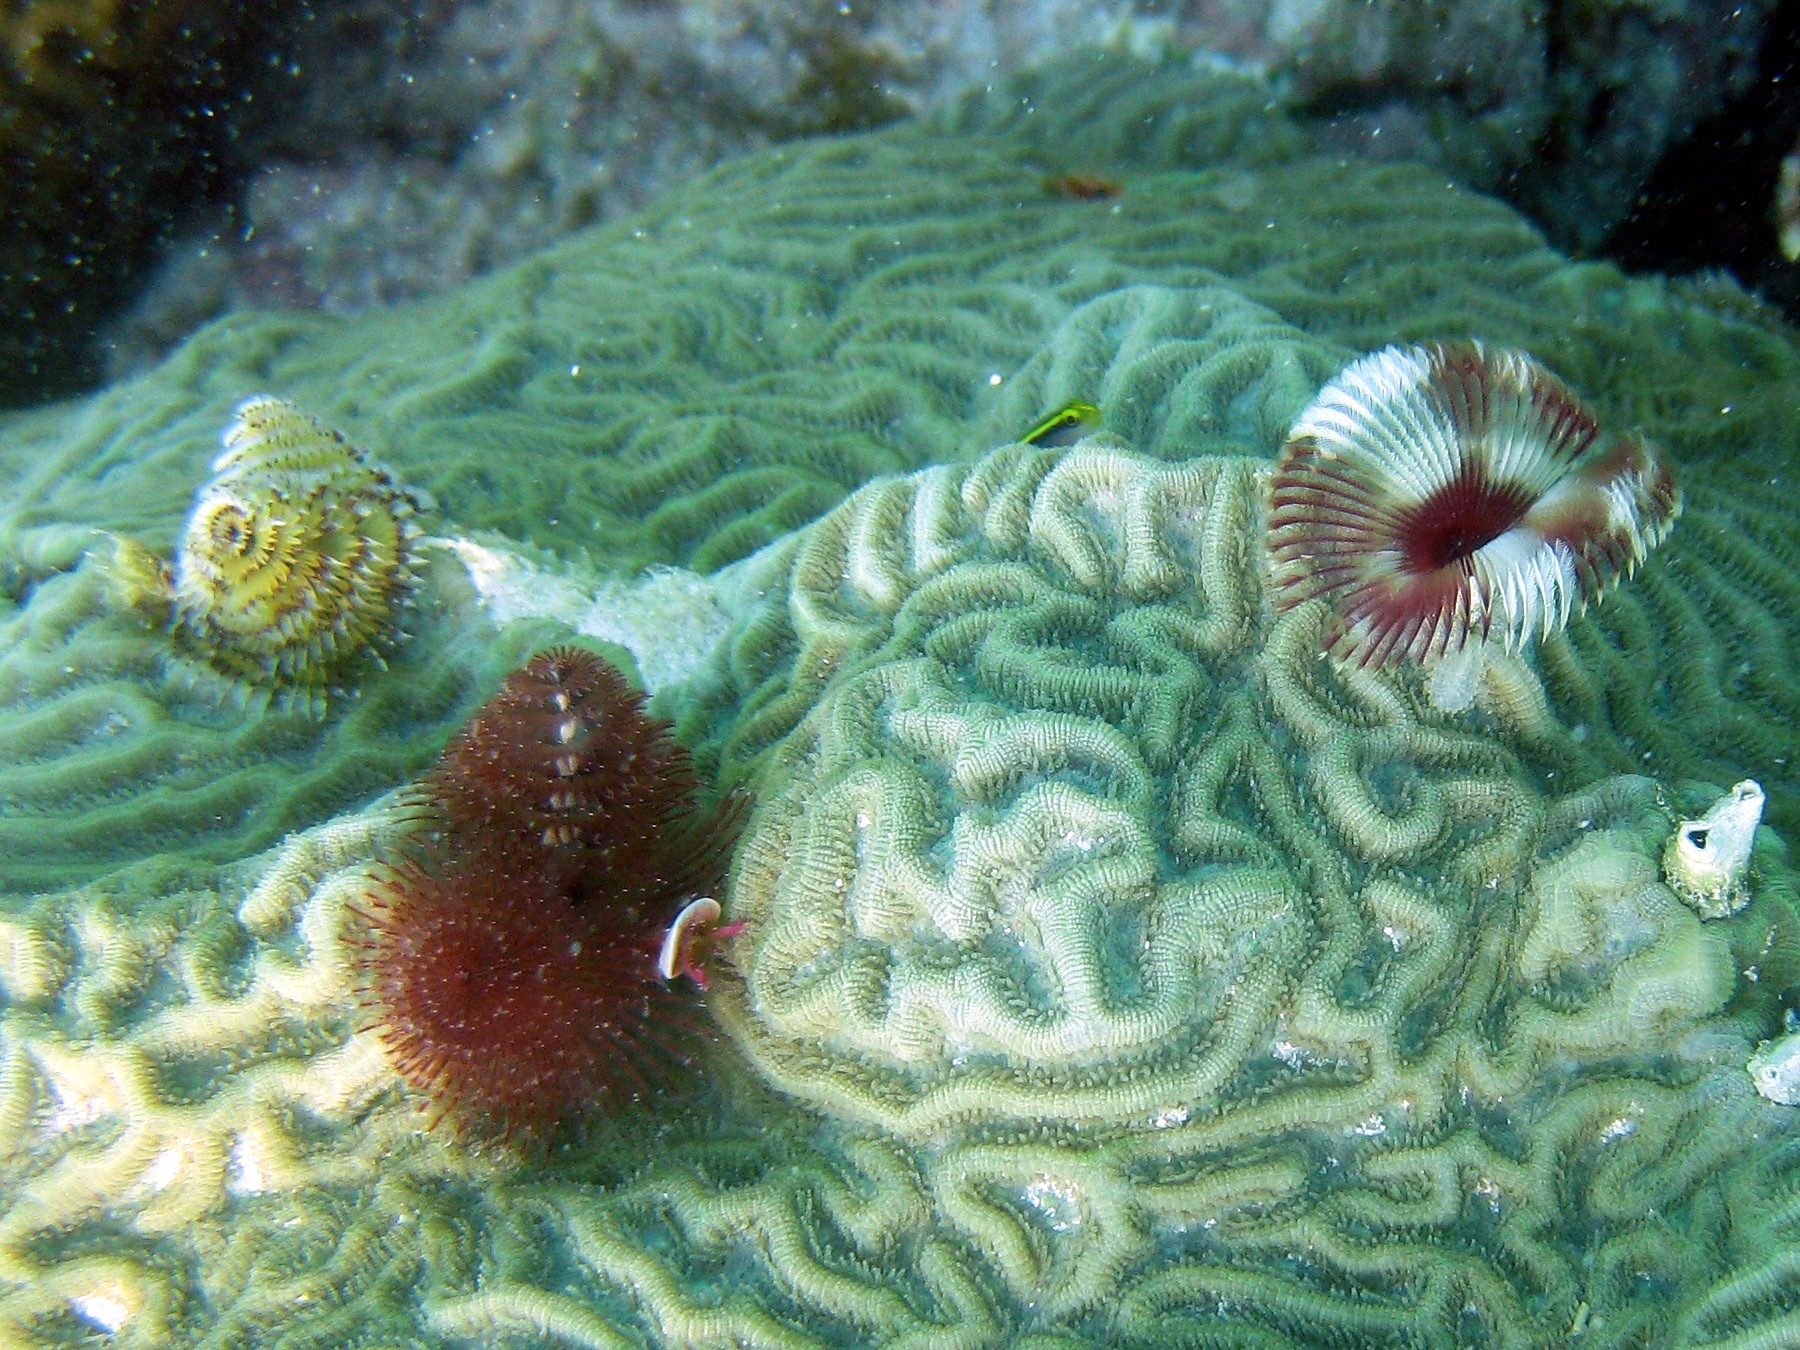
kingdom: Animalia
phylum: Annelida
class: Polychaeta
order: Sabellida
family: Serpulidae
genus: Spirobranchus
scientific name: Spirobranchus giganteus
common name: Christmas tree worm
